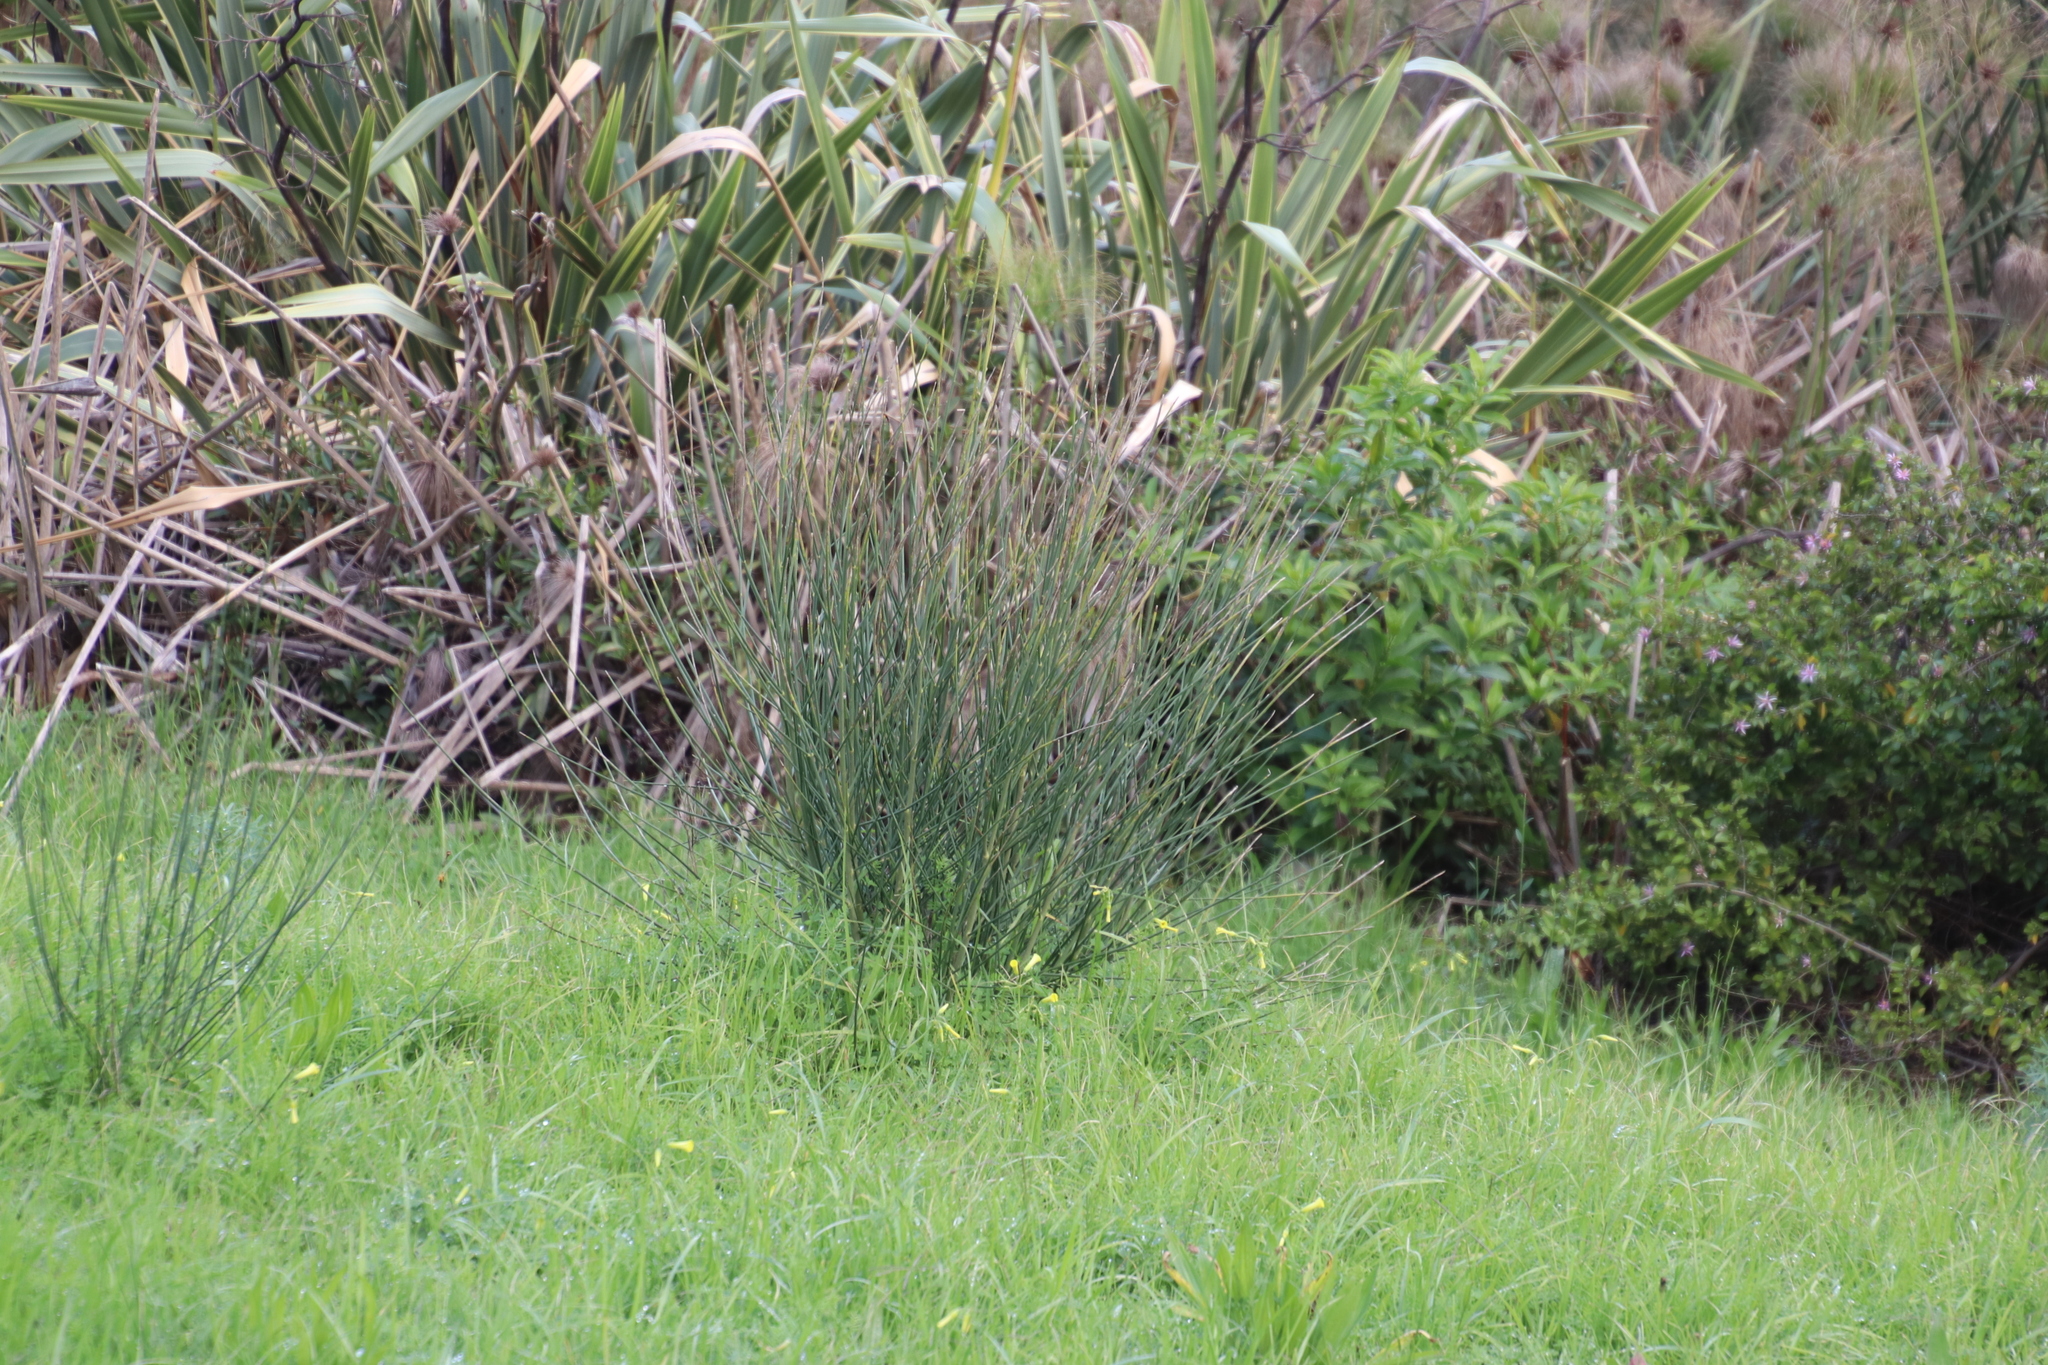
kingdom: Plantae
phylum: Tracheophyta
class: Magnoliopsida
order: Fabales
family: Fabaceae
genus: Spartium
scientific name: Spartium junceum
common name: Spanish broom
